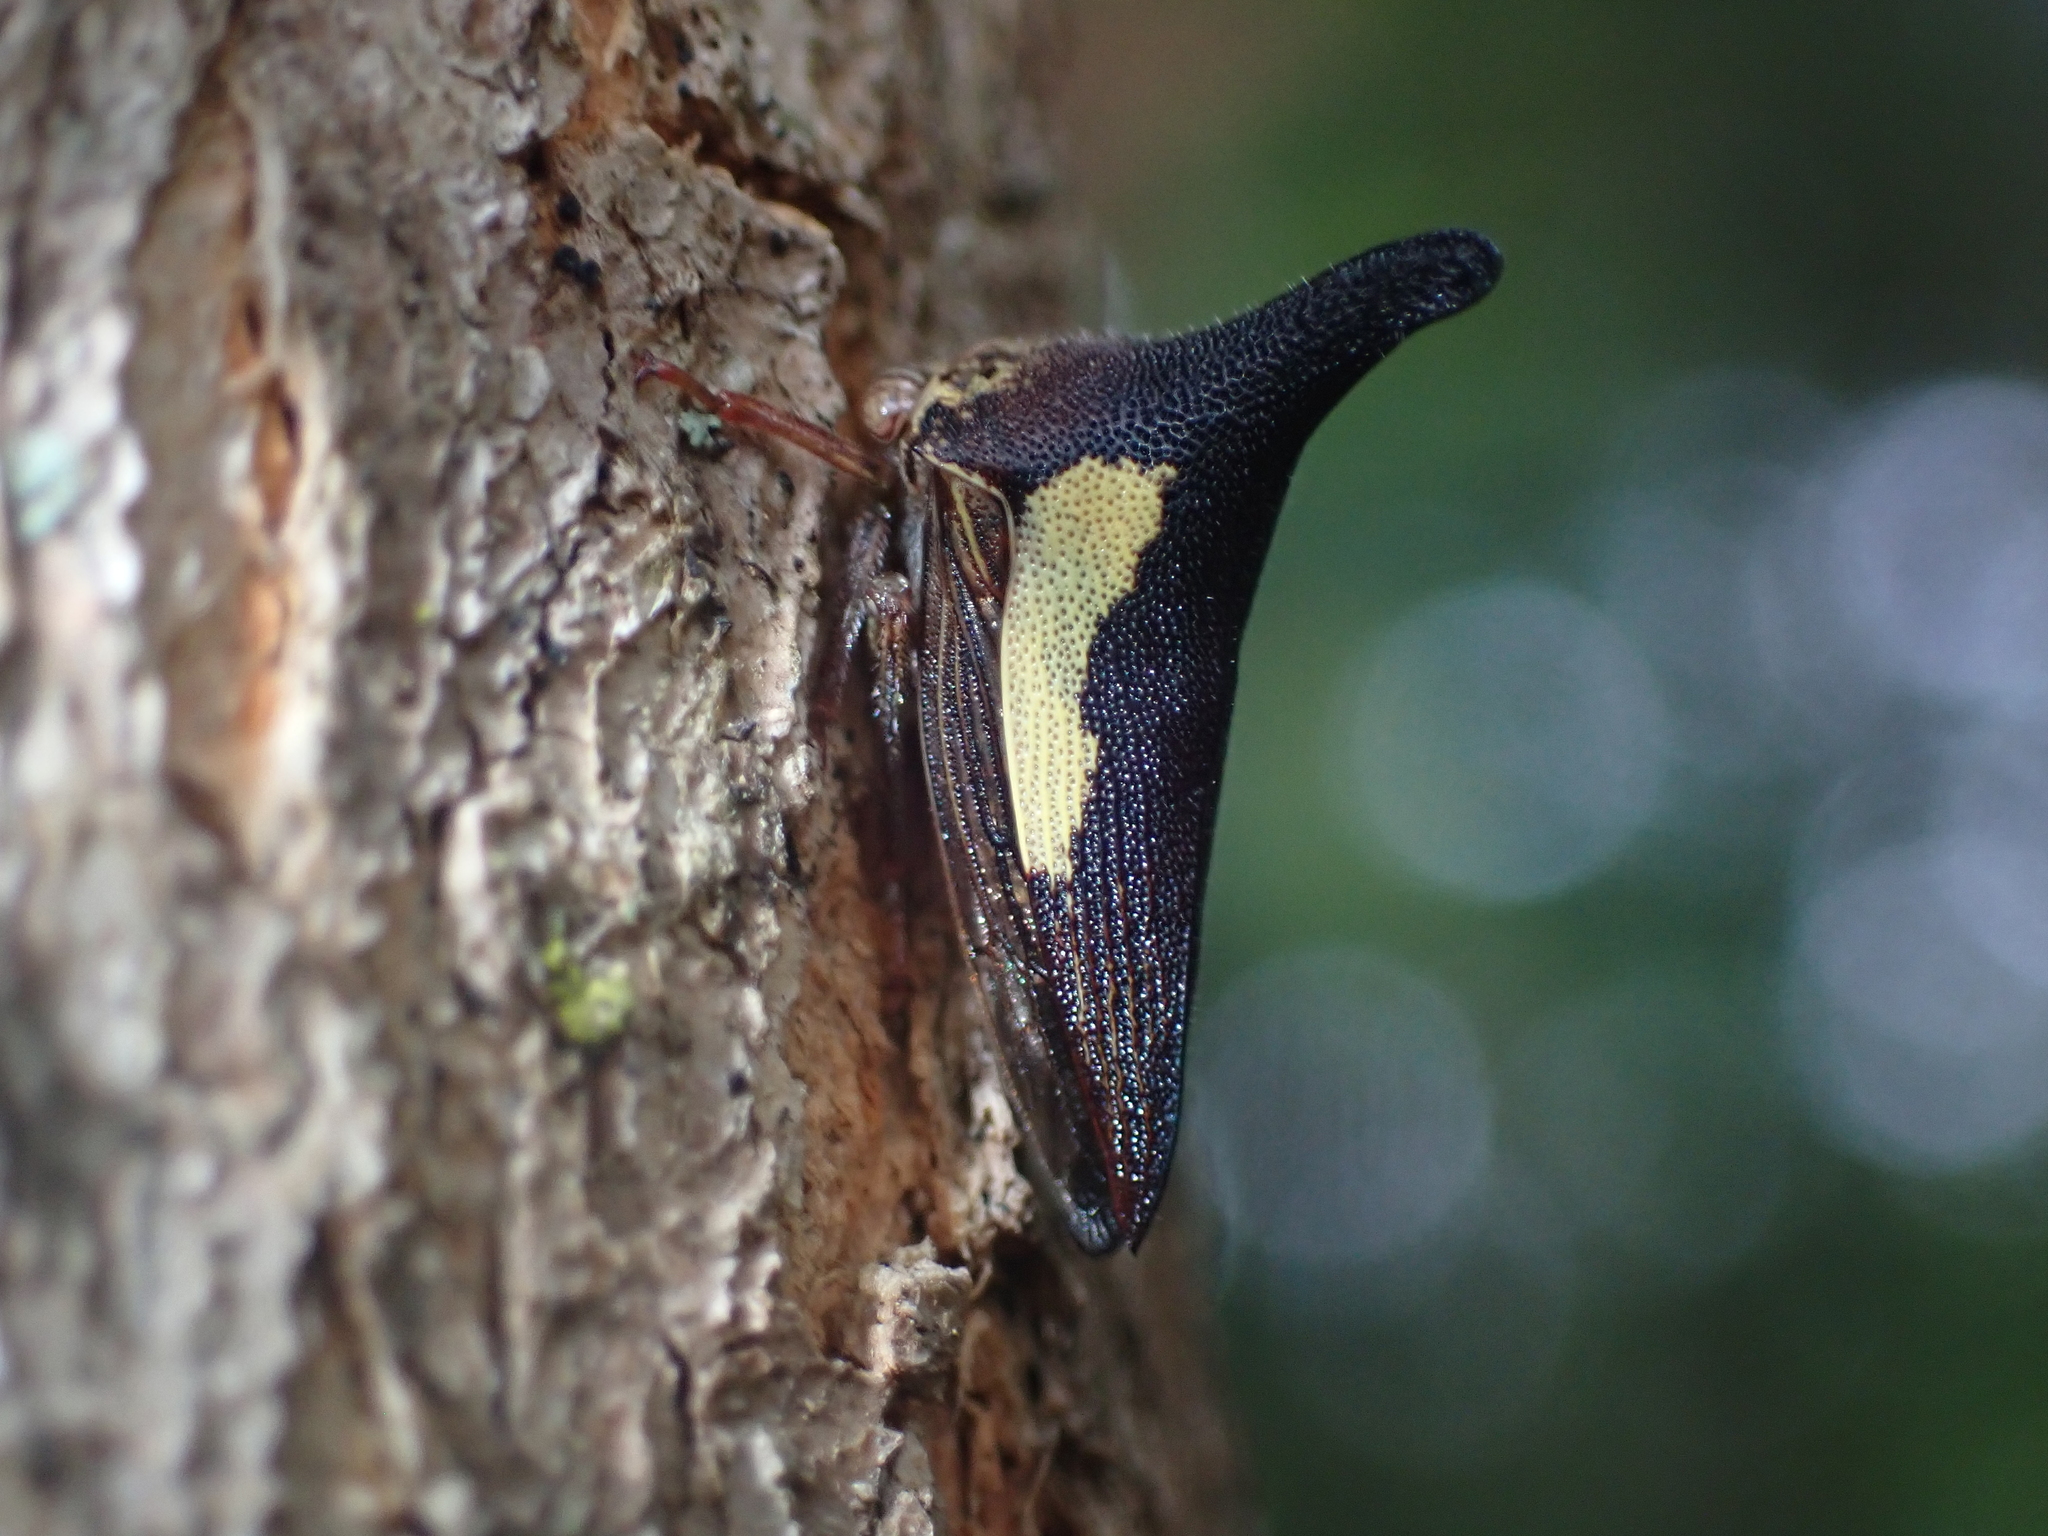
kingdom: Animalia
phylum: Arthropoda
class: Insecta
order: Hemiptera
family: Membracidae
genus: Thelia
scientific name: Thelia bimaculata
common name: Locust treehopper
